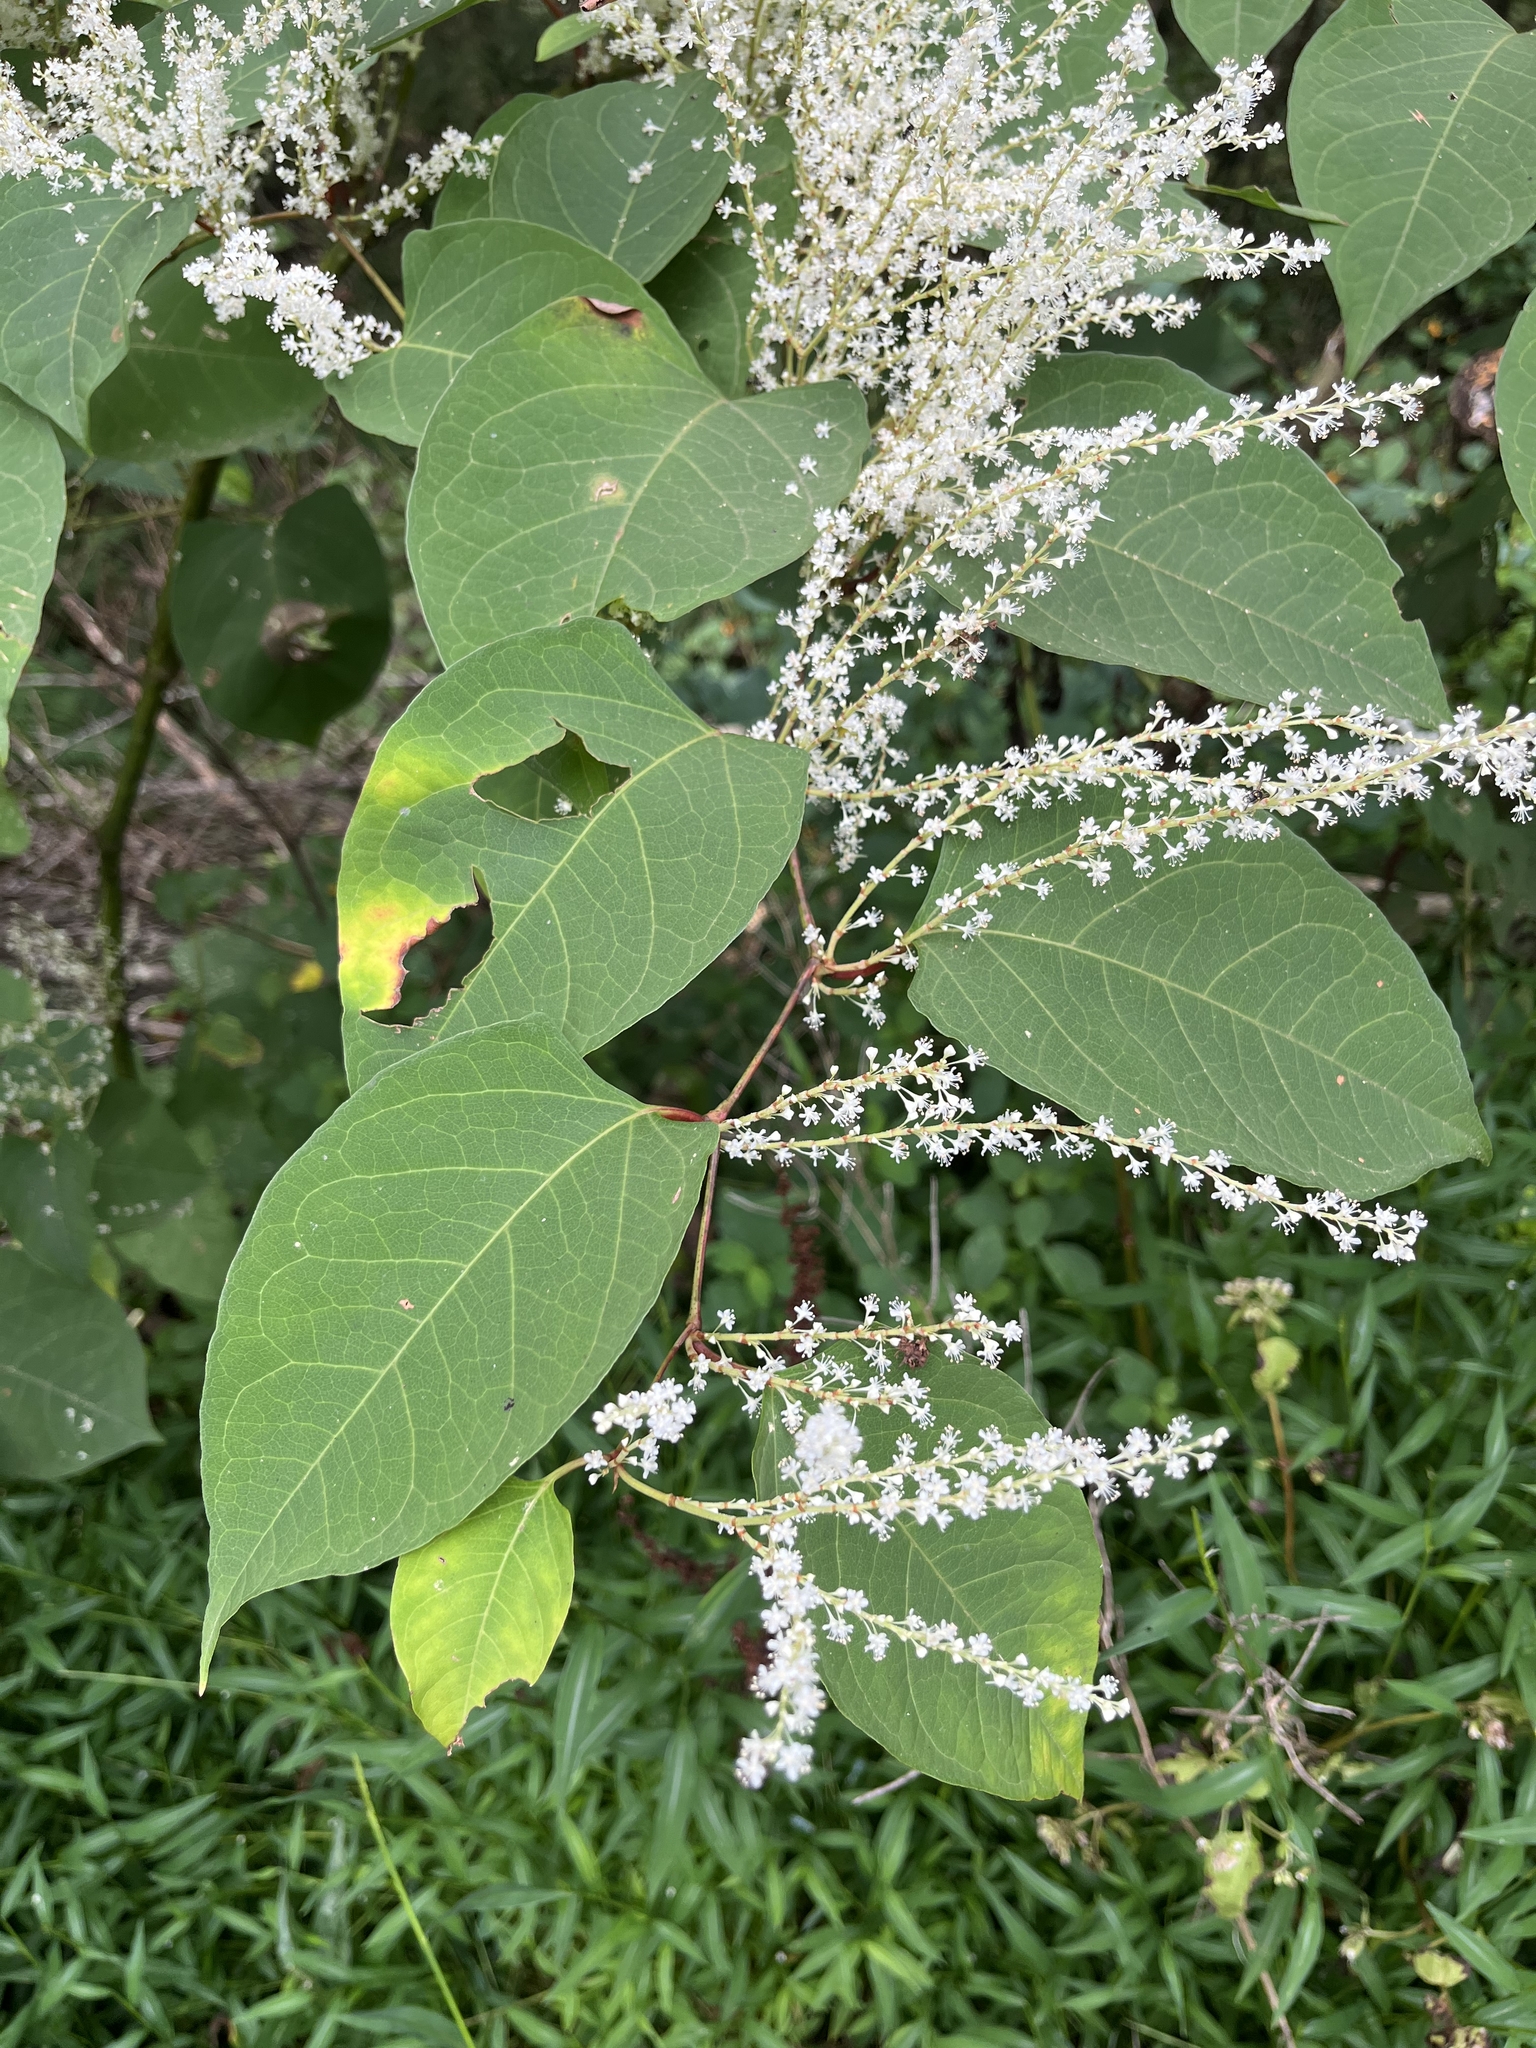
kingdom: Plantae
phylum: Tracheophyta
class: Magnoliopsida
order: Caryophyllales
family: Polygonaceae
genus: Reynoutria
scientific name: Reynoutria japonica
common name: Japanese knotweed
